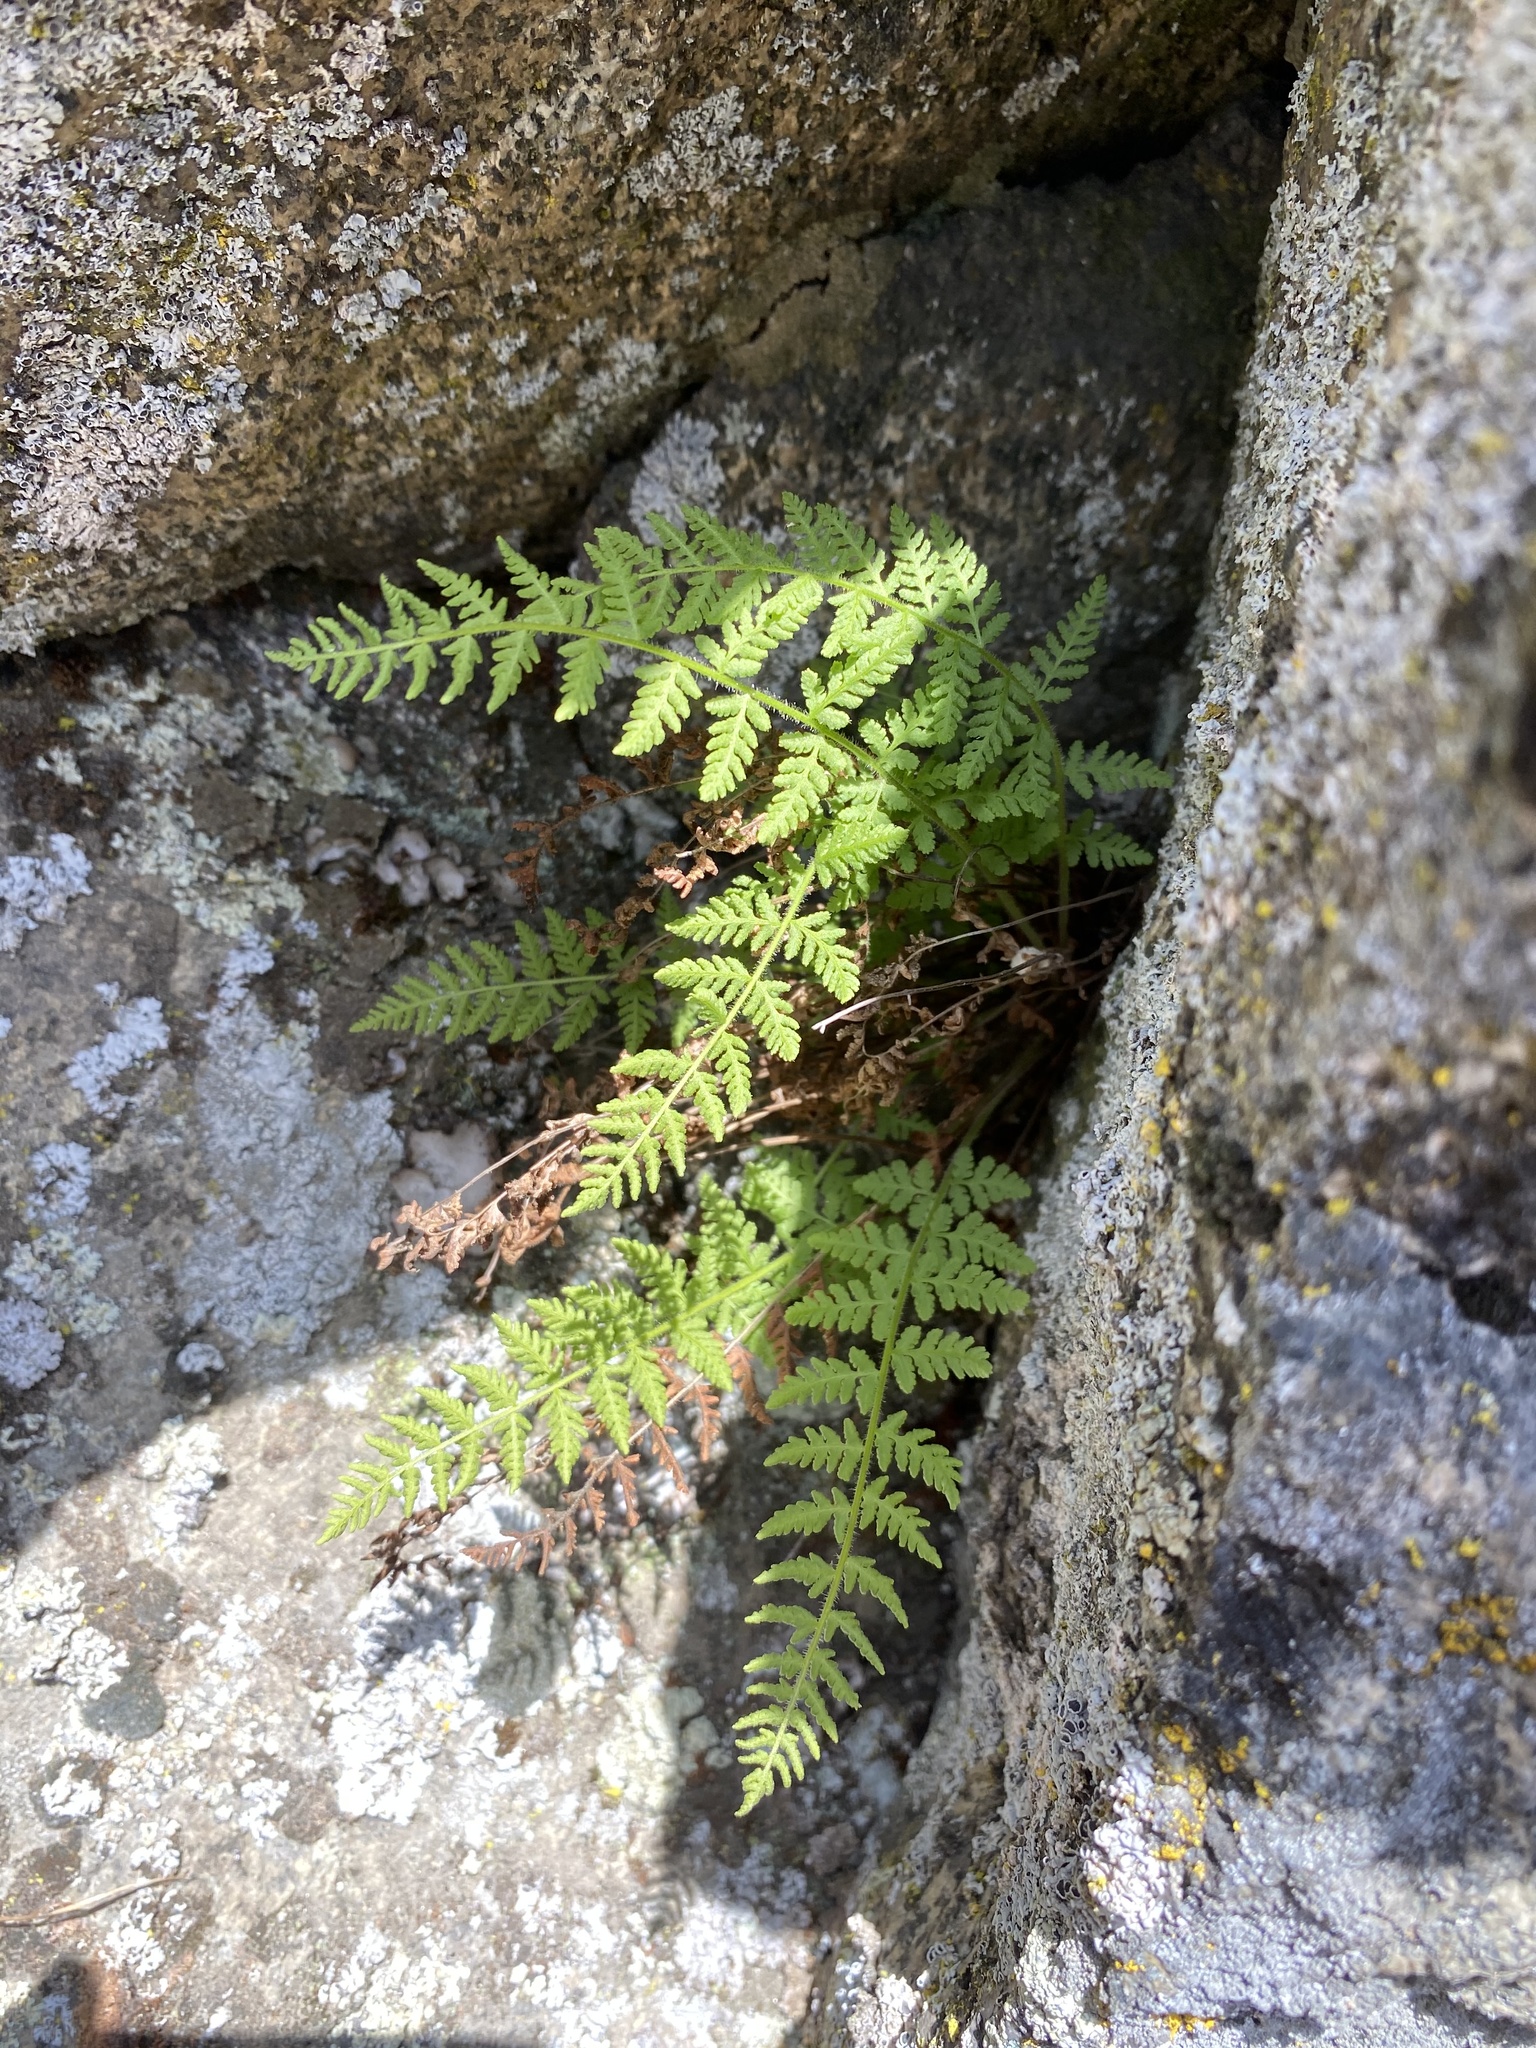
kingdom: Plantae
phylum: Tracheophyta
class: Polypodiopsida
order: Polypodiales
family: Woodsiaceae
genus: Physematium
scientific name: Physematium scopulinum
